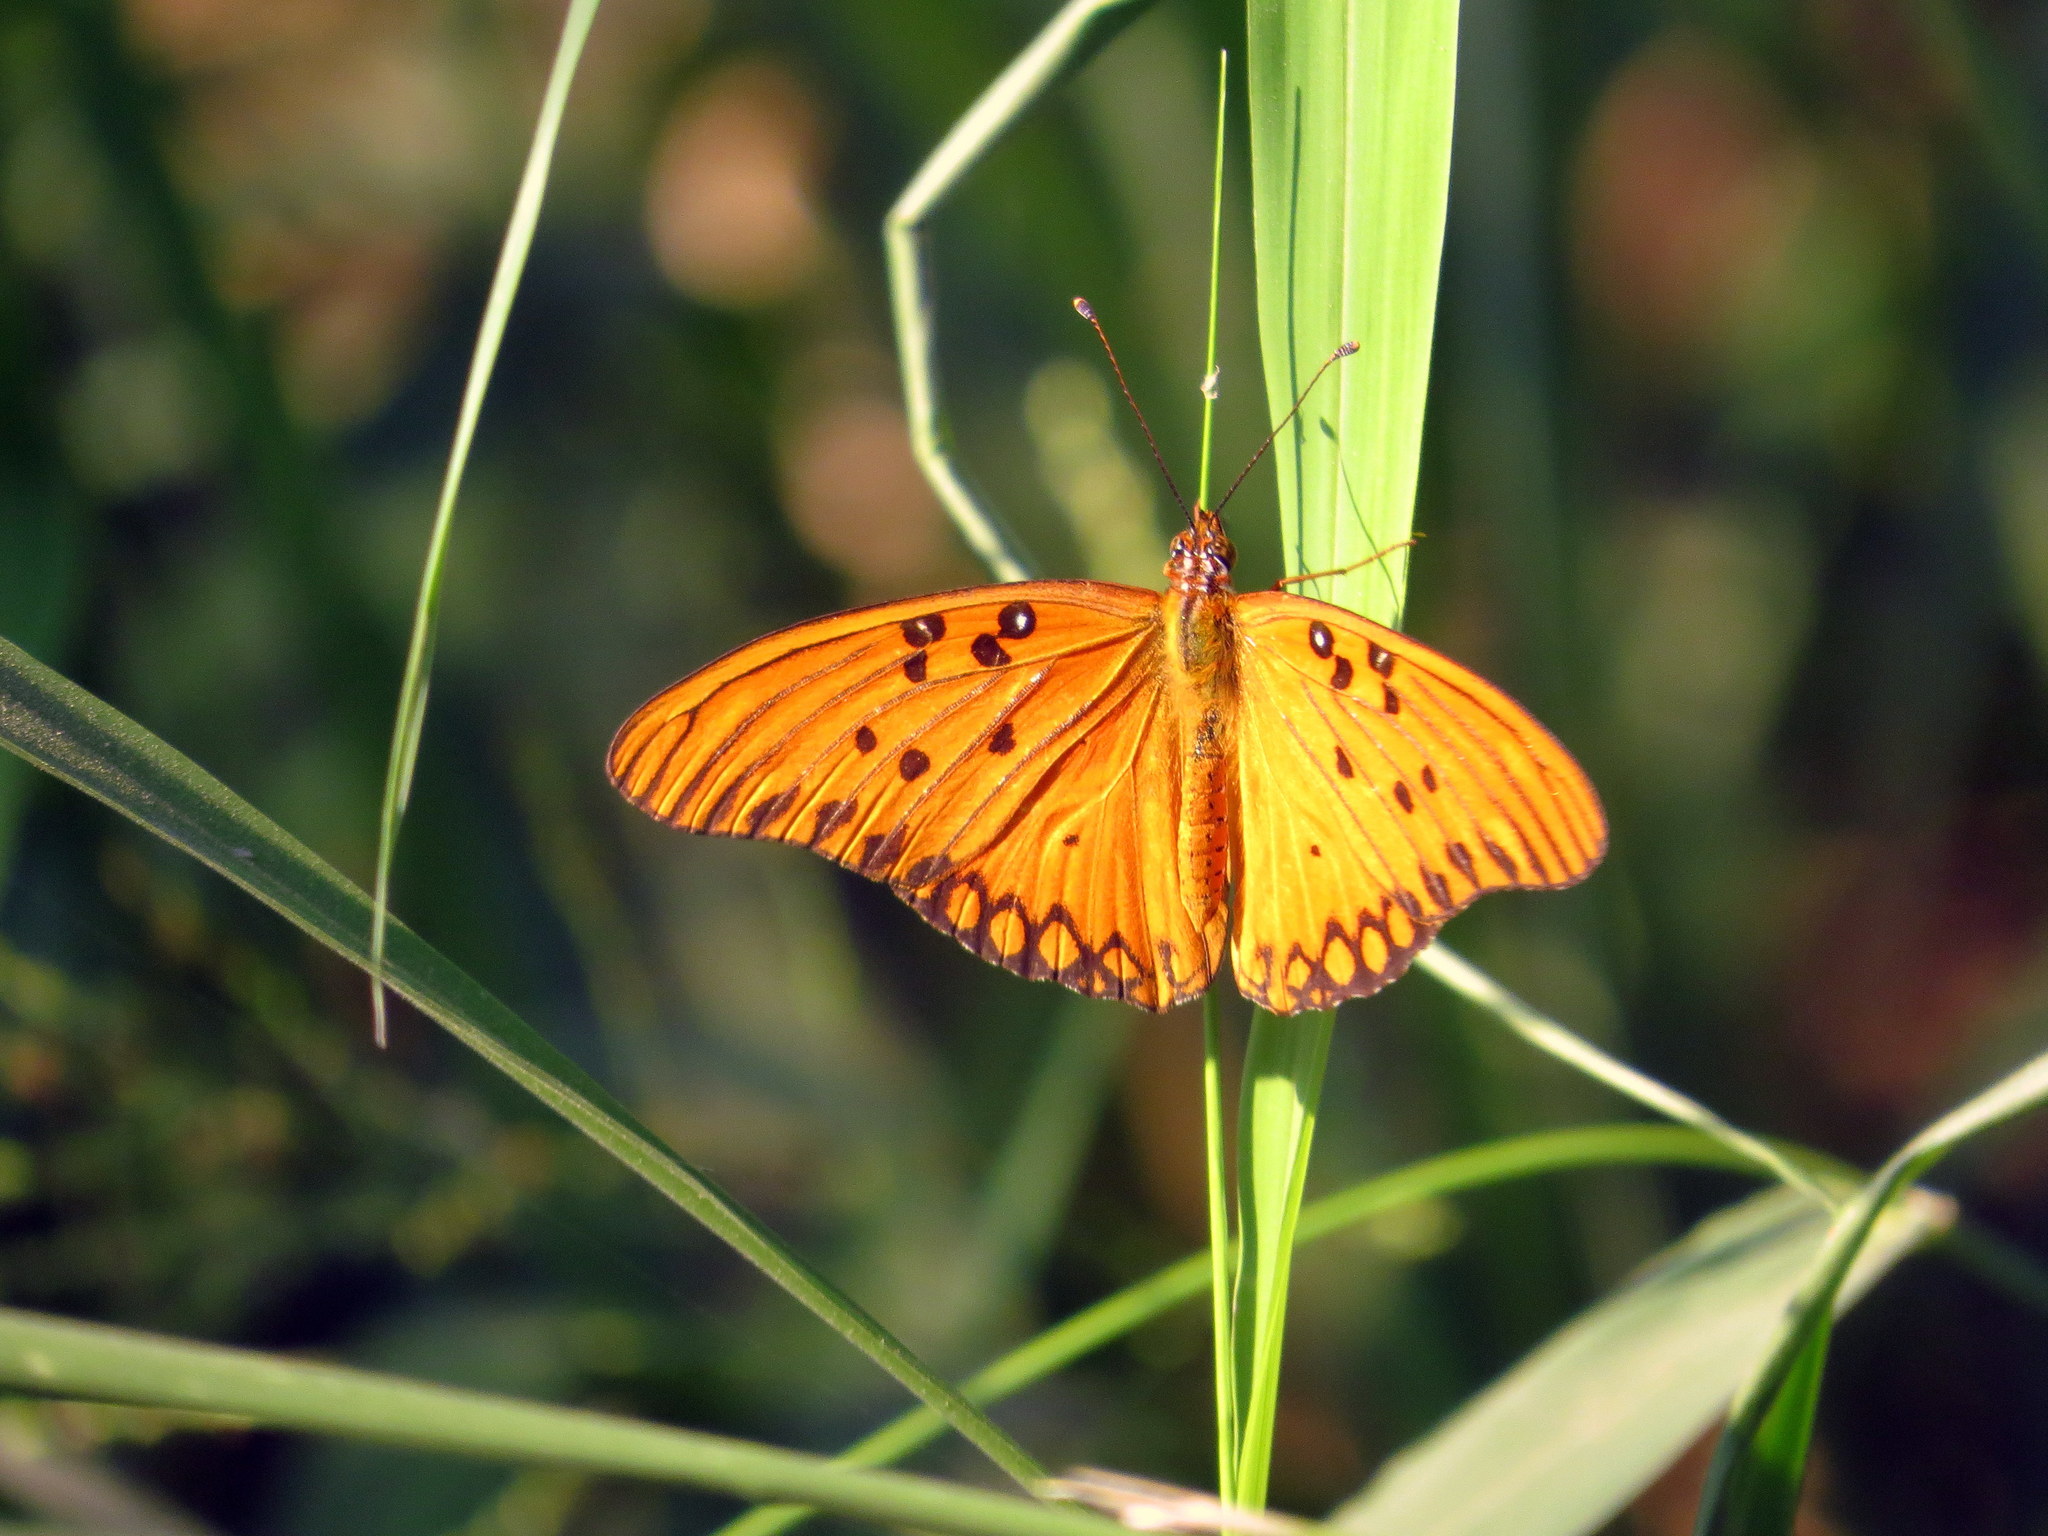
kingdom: Animalia
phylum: Arthropoda
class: Insecta
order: Lepidoptera
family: Nymphalidae
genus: Dione
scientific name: Dione vanillae
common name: Gulf fritillary
